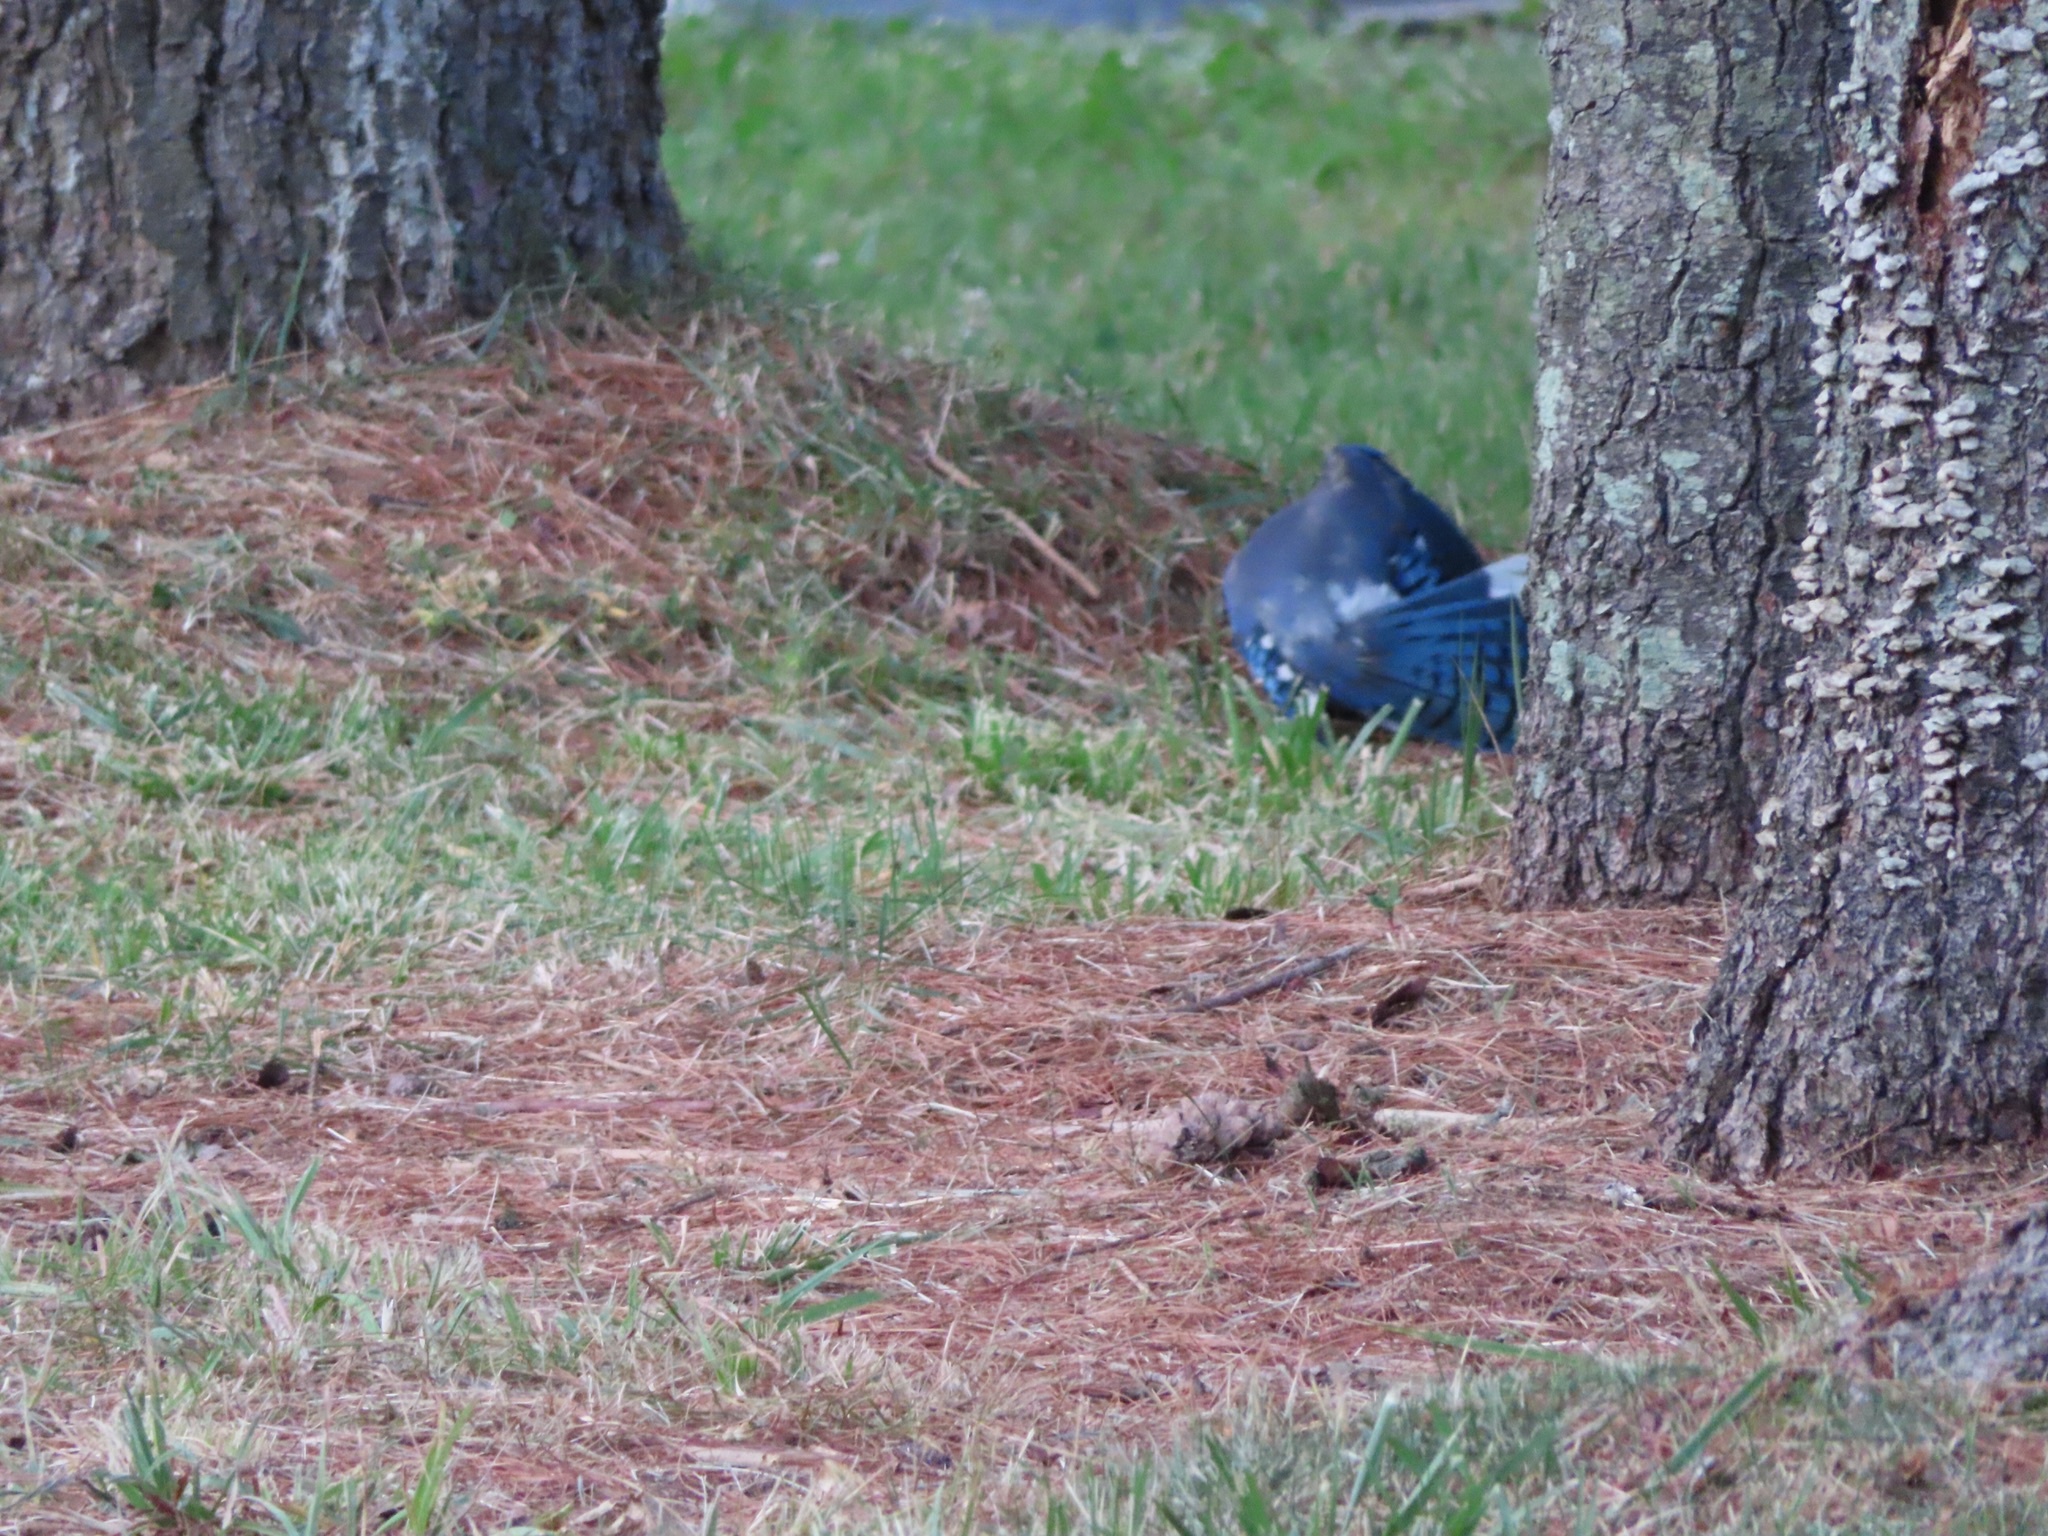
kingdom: Animalia
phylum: Chordata
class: Aves
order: Passeriformes
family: Corvidae
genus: Cyanocitta
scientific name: Cyanocitta cristata
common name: Blue jay
